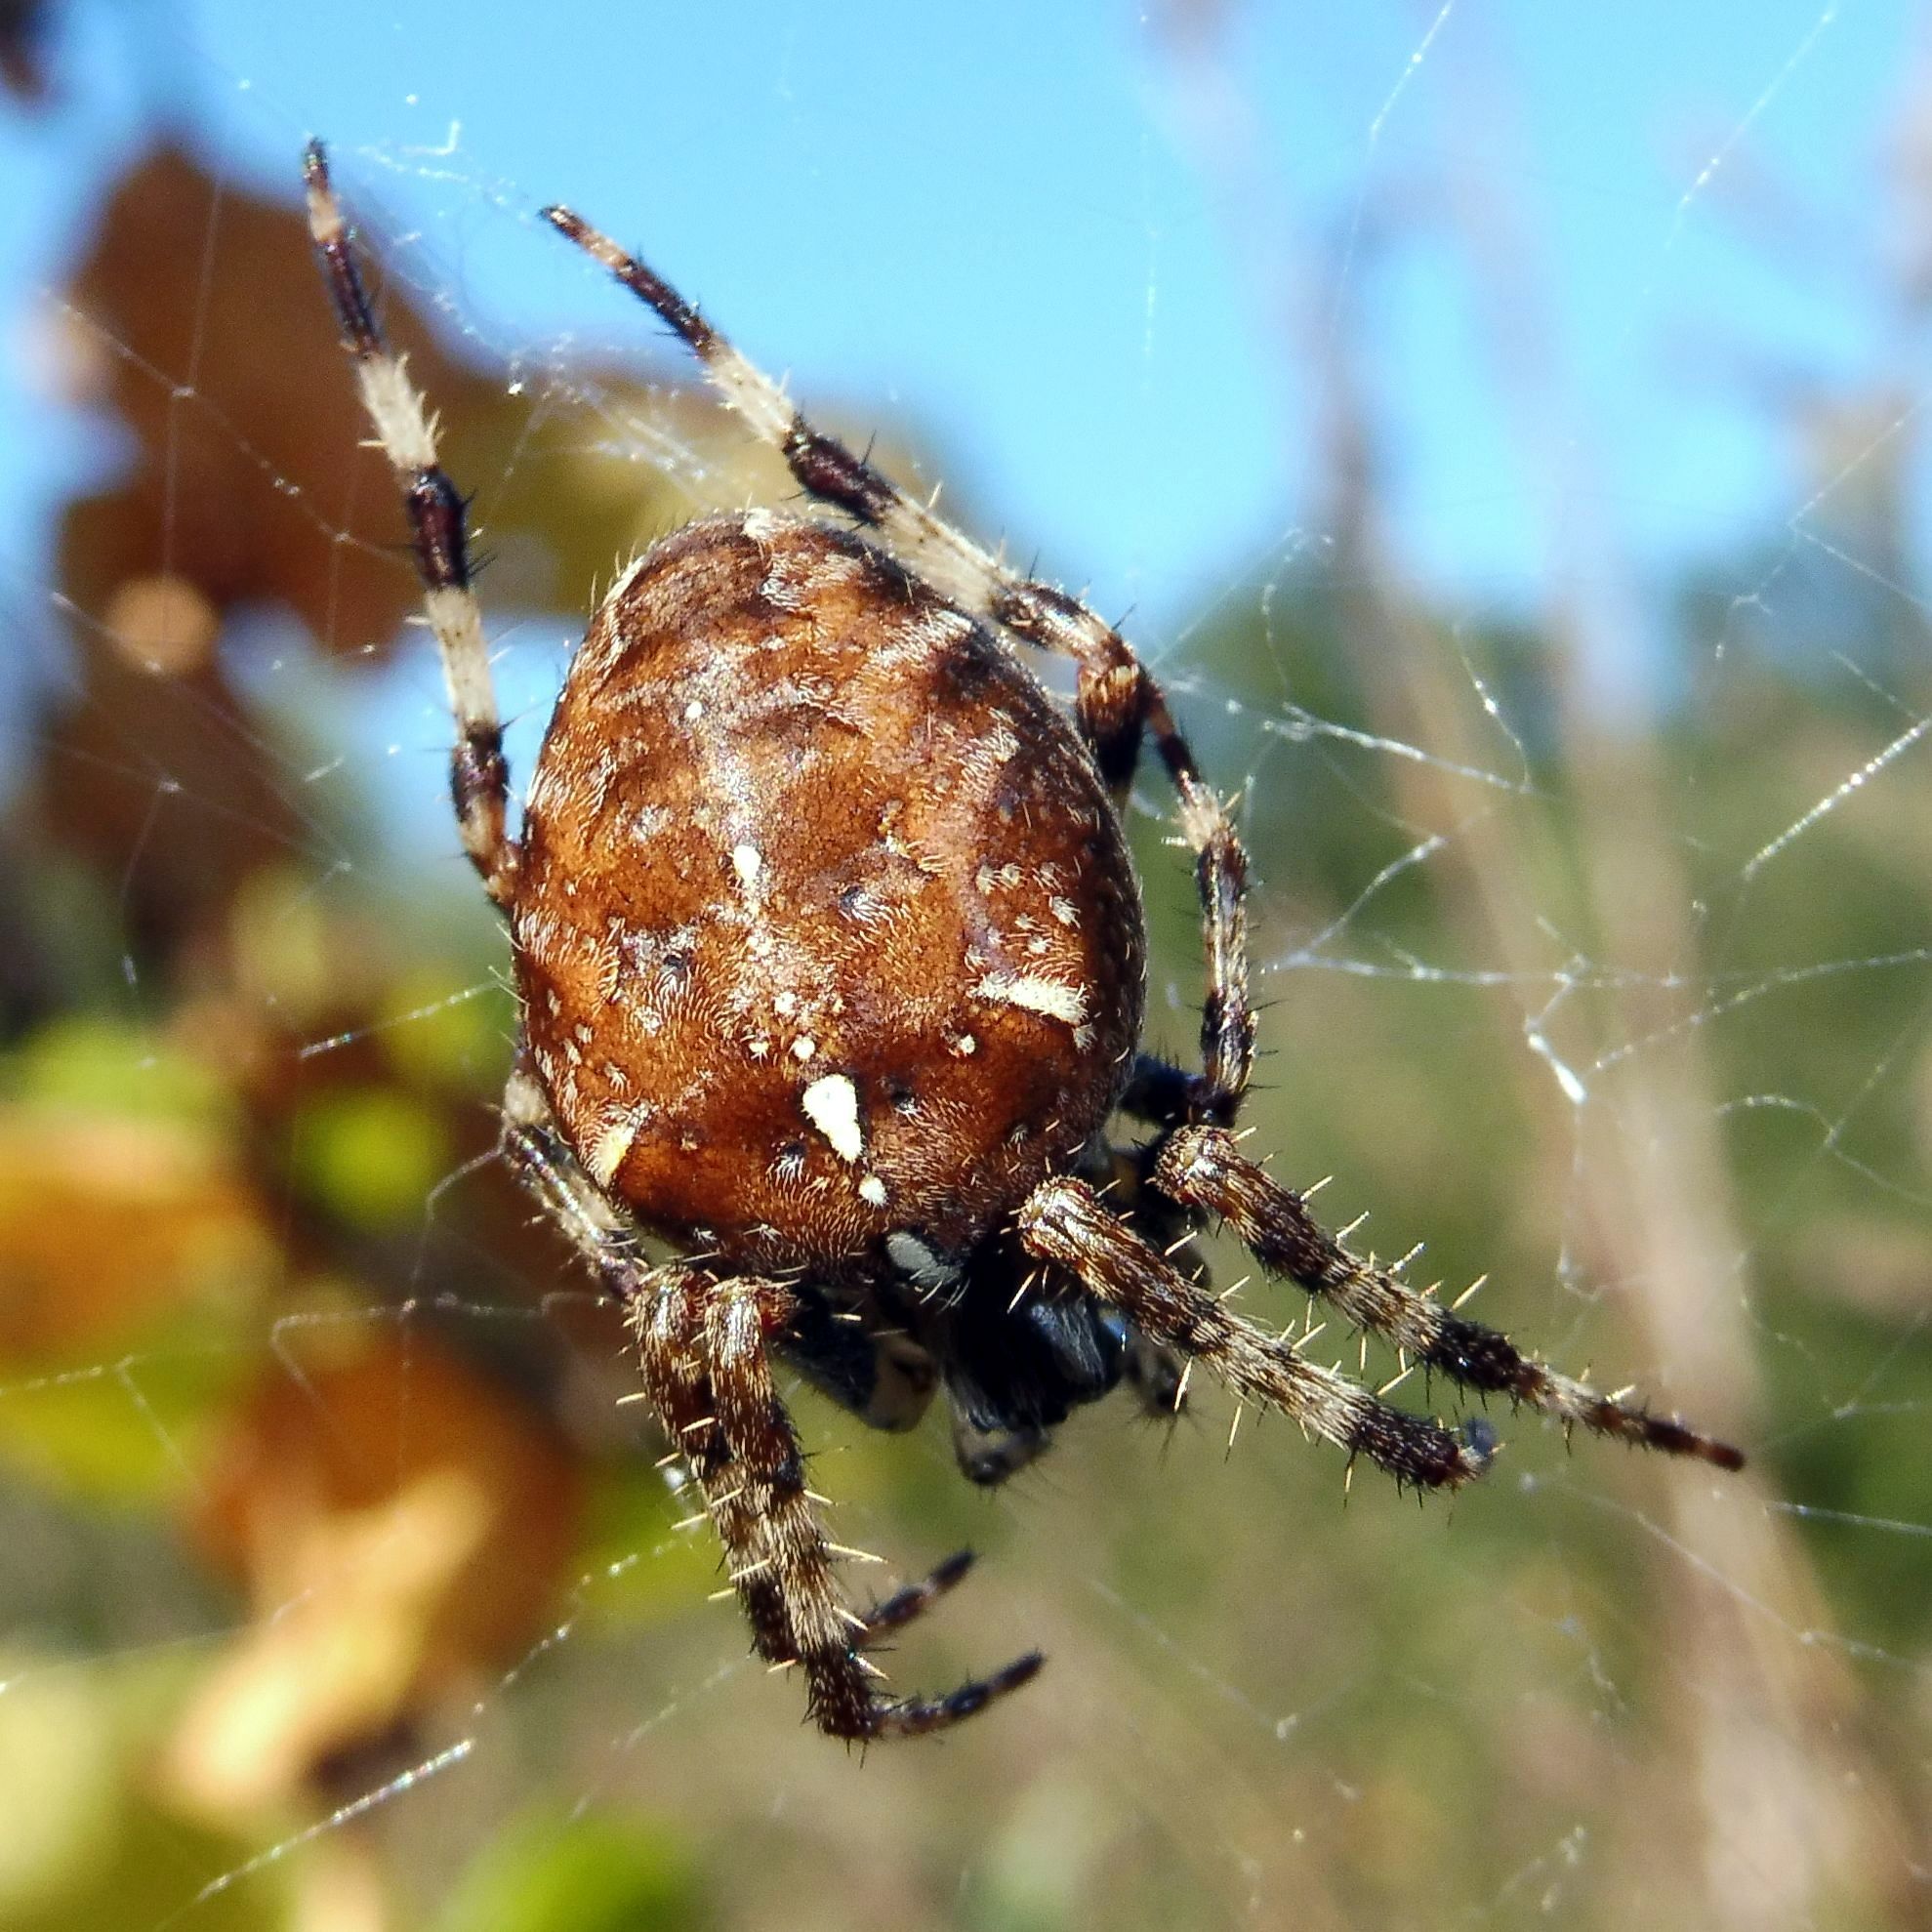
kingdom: Animalia
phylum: Arthropoda
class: Arachnida
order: Araneae
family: Araneidae
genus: Araneus
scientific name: Araneus diadematus
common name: Cross orbweaver
